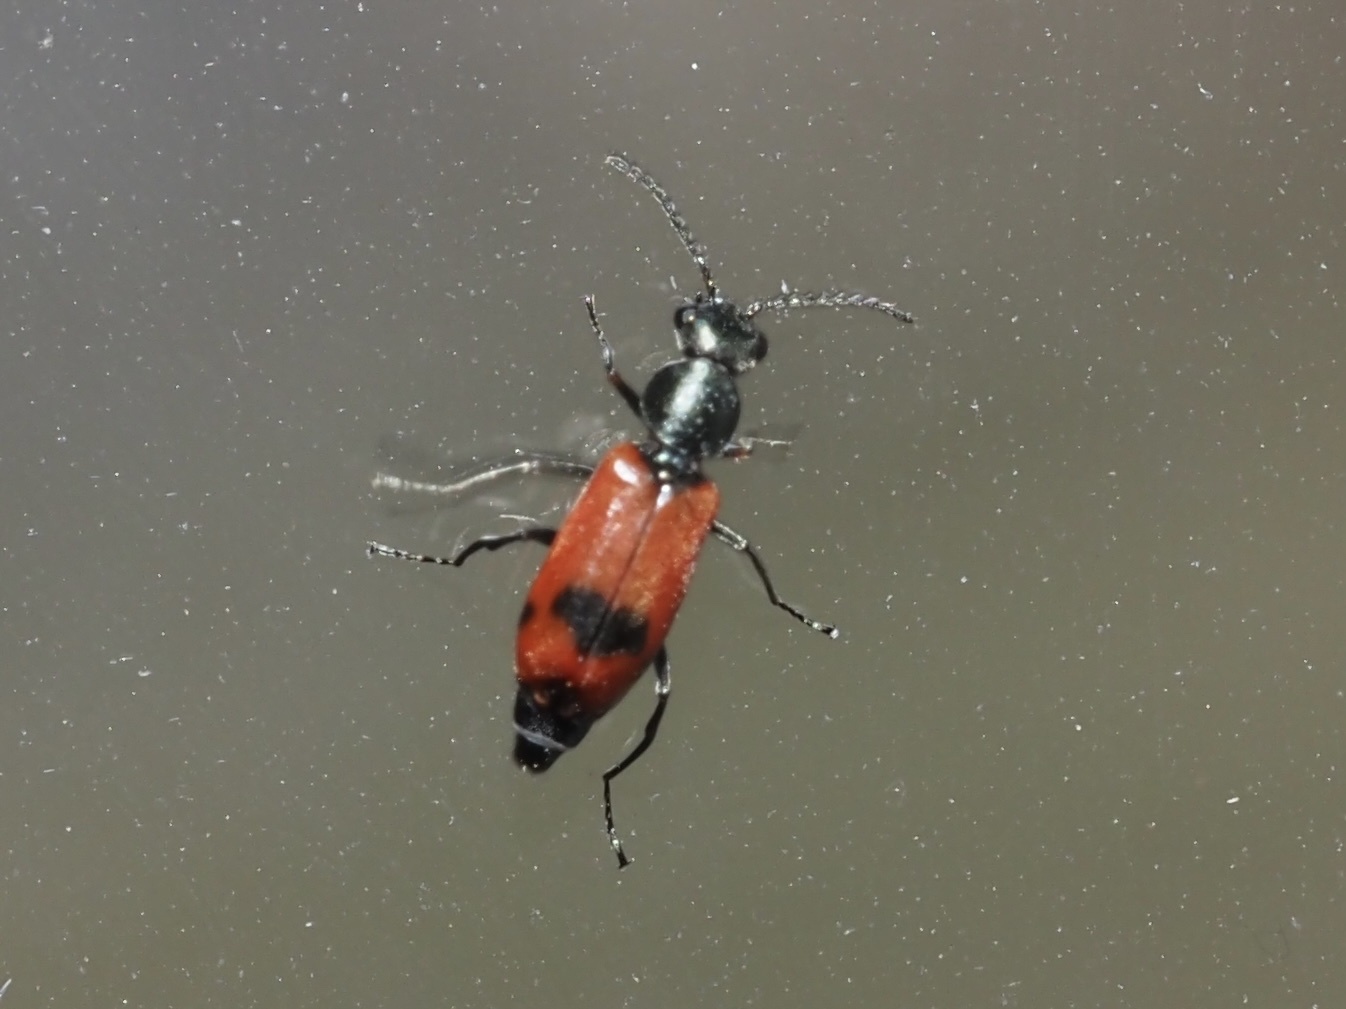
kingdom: Animalia
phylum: Arthropoda
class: Insecta
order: Coleoptera
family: Melyridae
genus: Anthocomus
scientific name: Anthocomus equestris
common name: Black-banded soft-winged flower beetle
